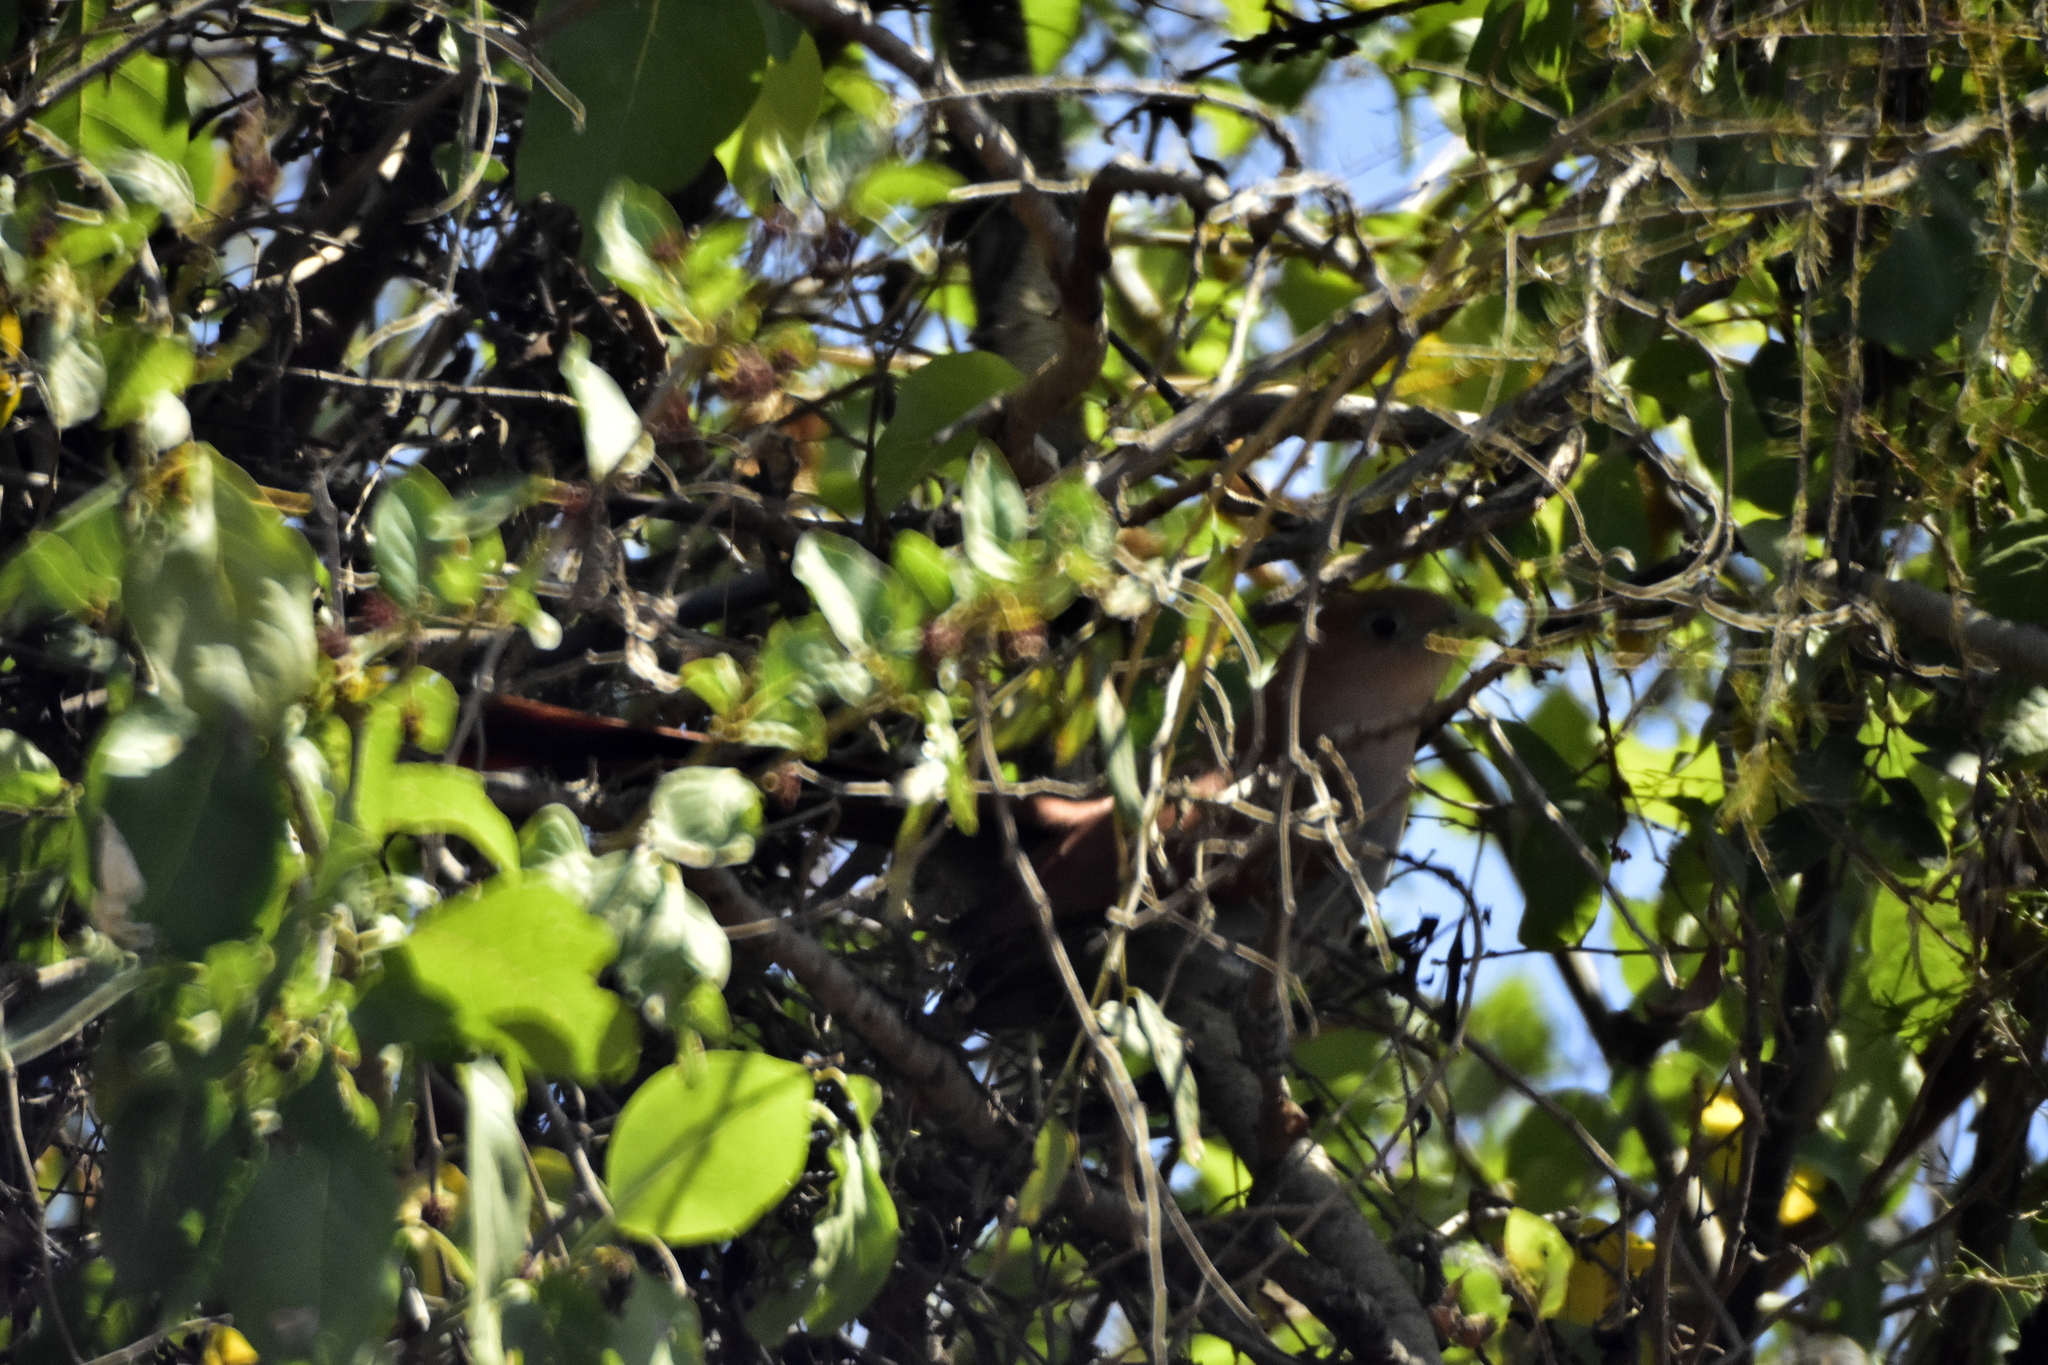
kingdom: Animalia
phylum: Chordata
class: Aves
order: Cuculiformes
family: Cuculidae
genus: Piaya
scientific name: Piaya cayana
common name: Squirrel cuckoo
